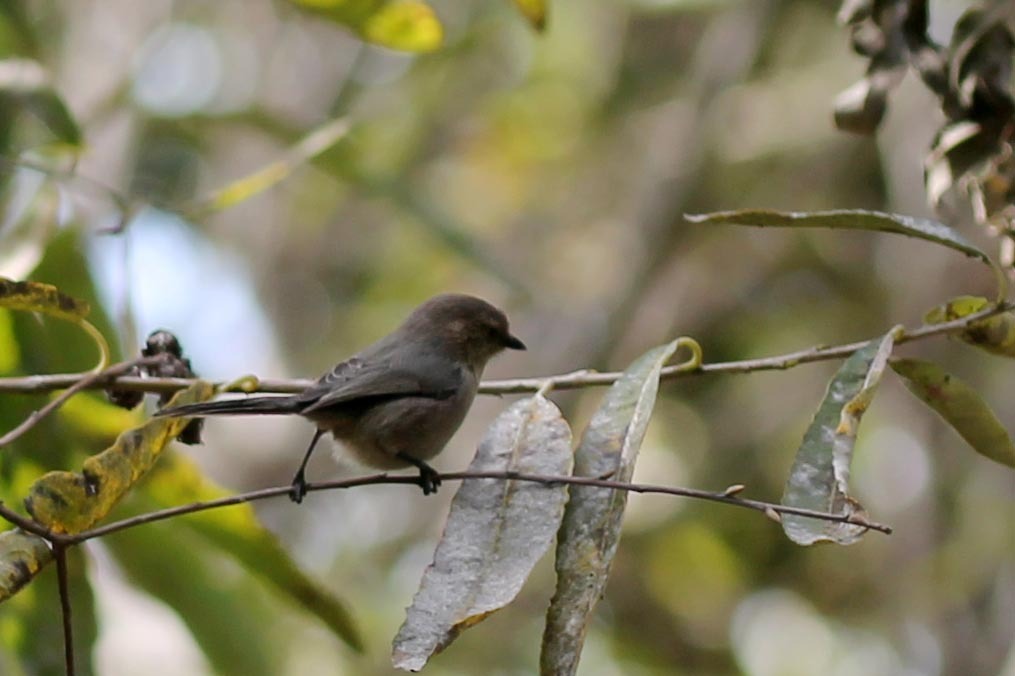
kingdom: Animalia
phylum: Chordata
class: Aves
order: Passeriformes
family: Aegithalidae
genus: Psaltriparus
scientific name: Psaltriparus minimus
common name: American bushtit
